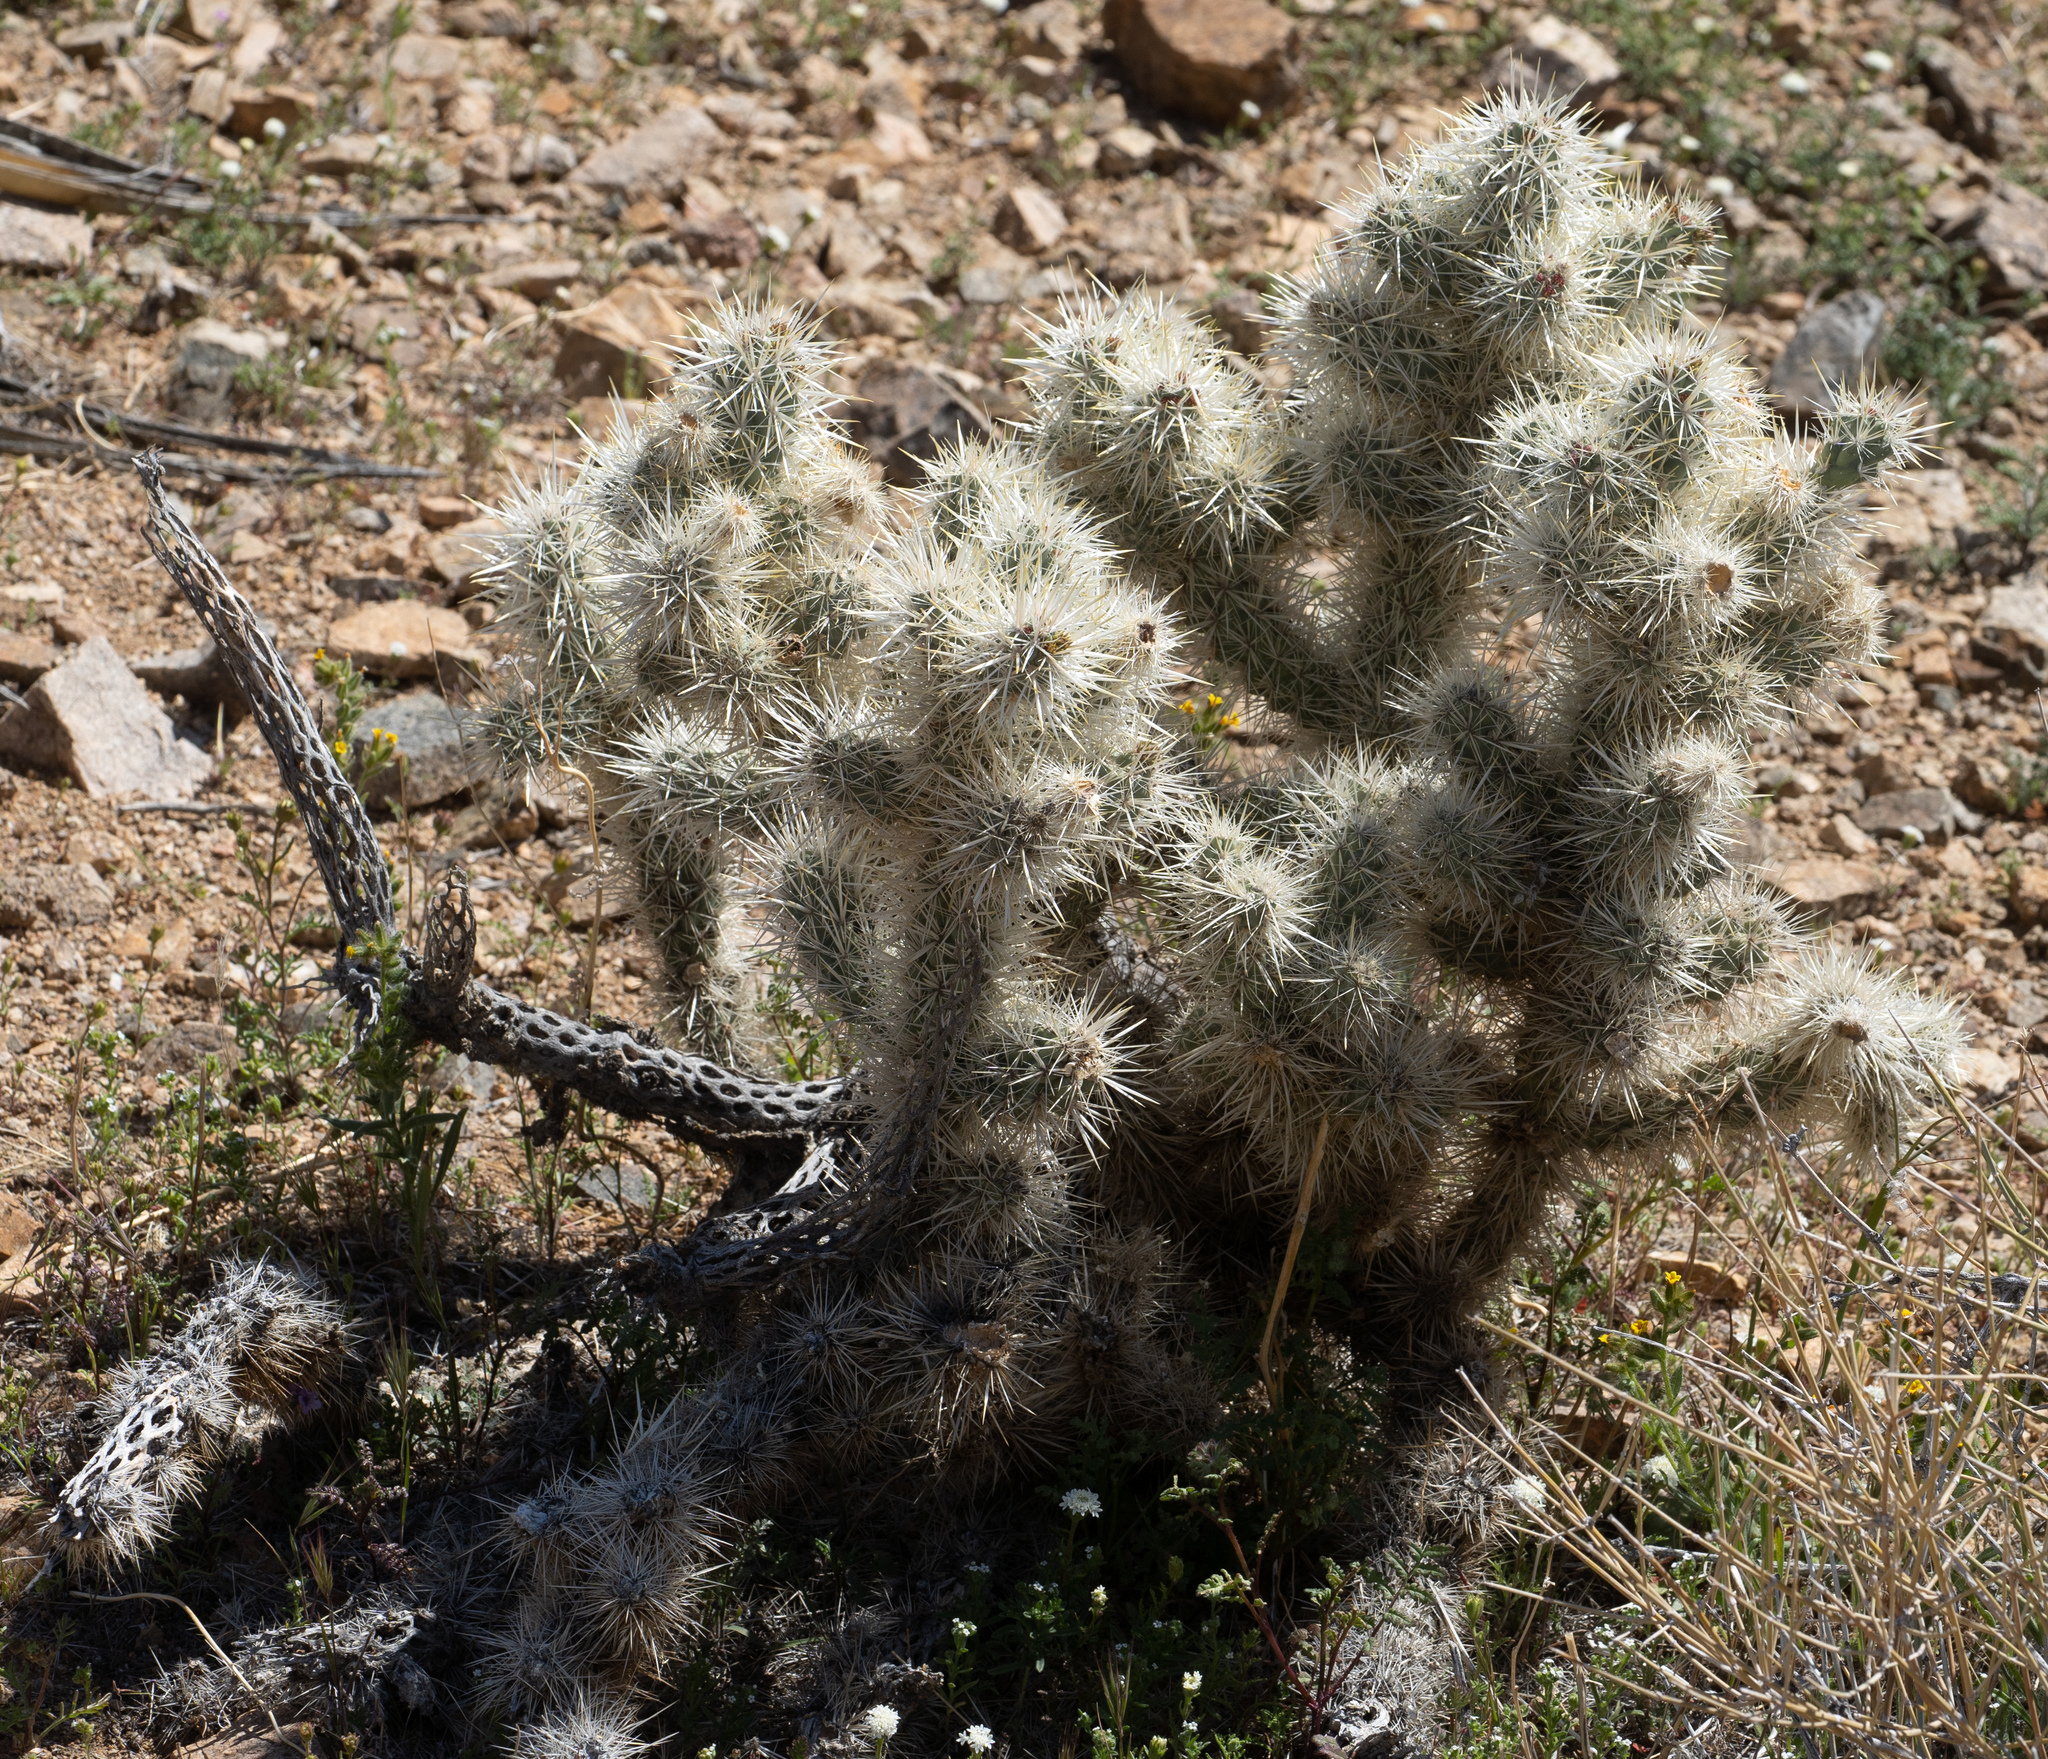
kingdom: Plantae
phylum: Tracheophyta
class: Magnoliopsida
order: Caryophyllales
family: Cactaceae
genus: Cylindropuntia
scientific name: Cylindropuntia echinocarpa
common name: Ground cholla
